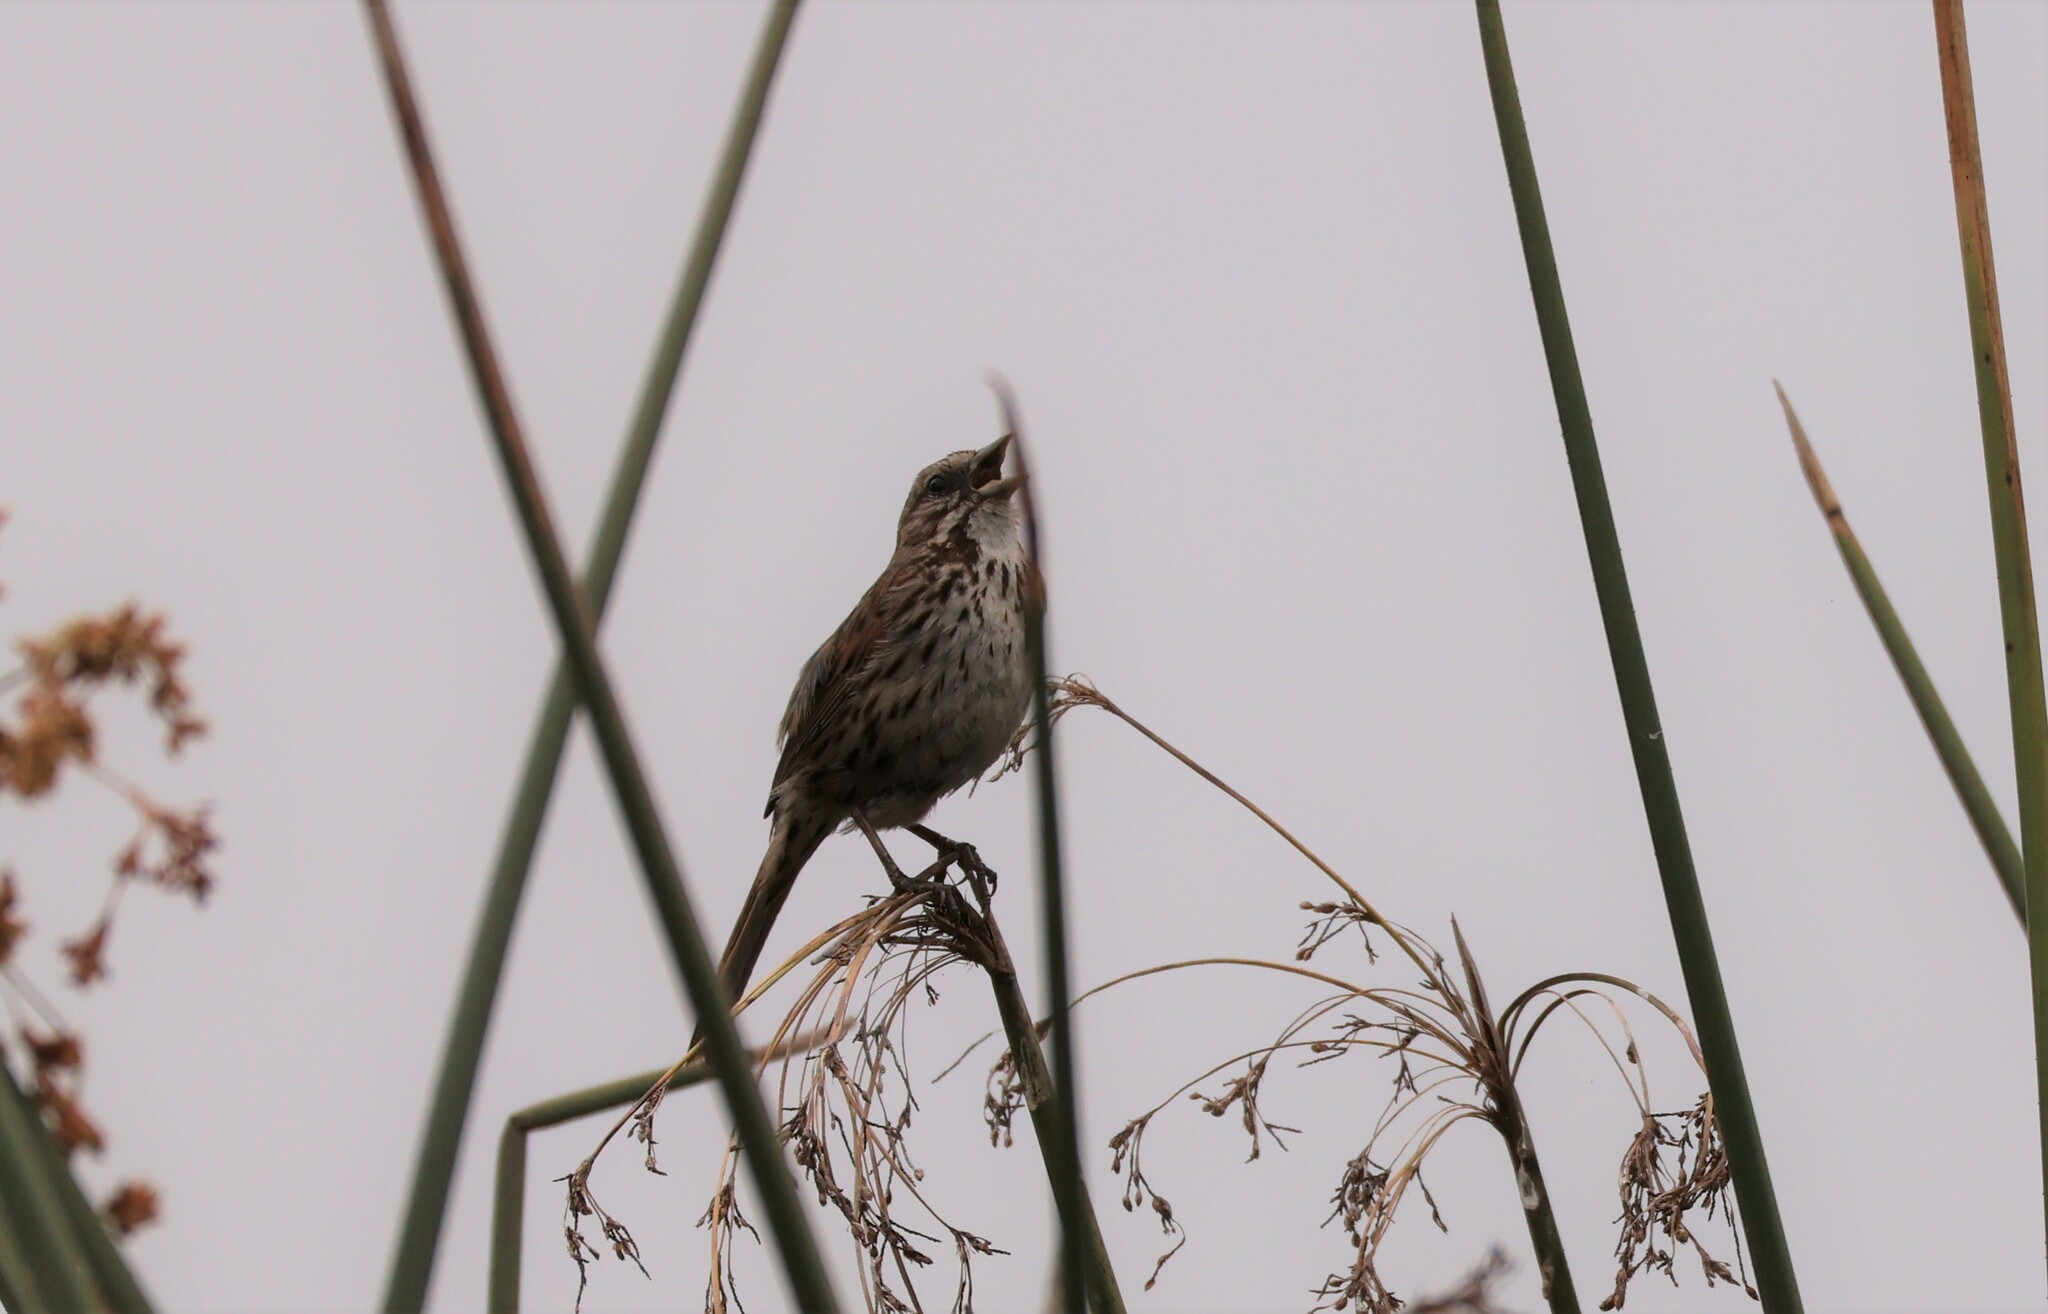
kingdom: Animalia
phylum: Chordata
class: Aves
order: Passeriformes
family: Passerellidae
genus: Melospiza
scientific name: Melospiza melodia
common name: Song sparrow
